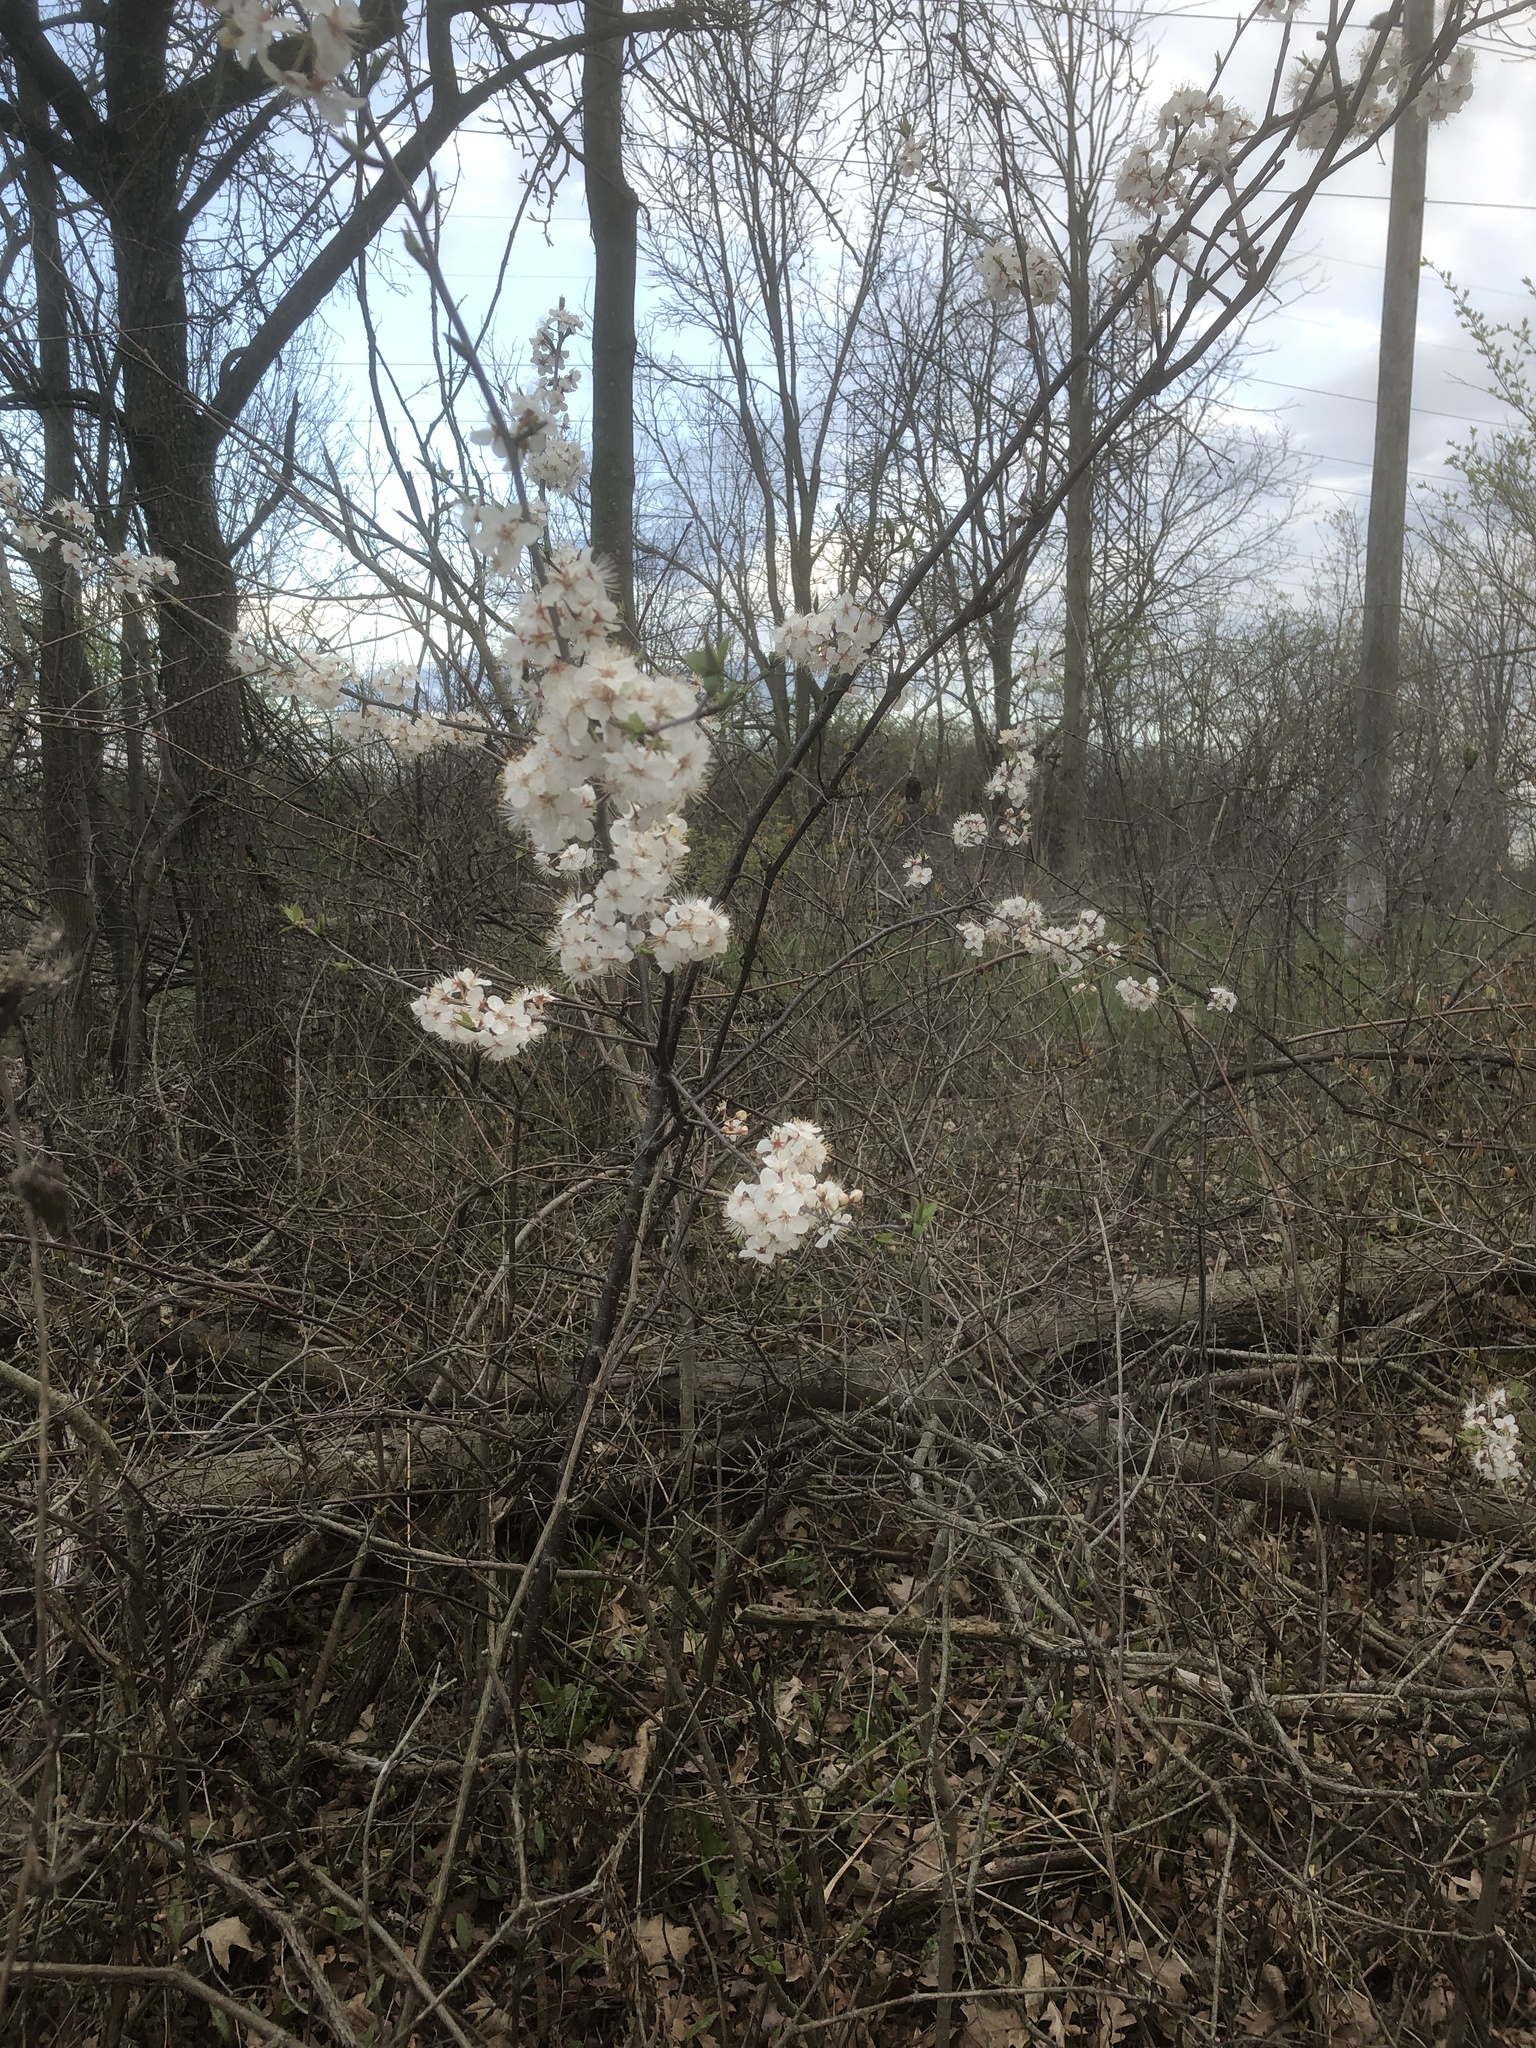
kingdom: Plantae
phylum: Tracheophyta
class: Magnoliopsida
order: Rosales
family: Rosaceae
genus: Prunus
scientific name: Prunus nigra
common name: Black plum
